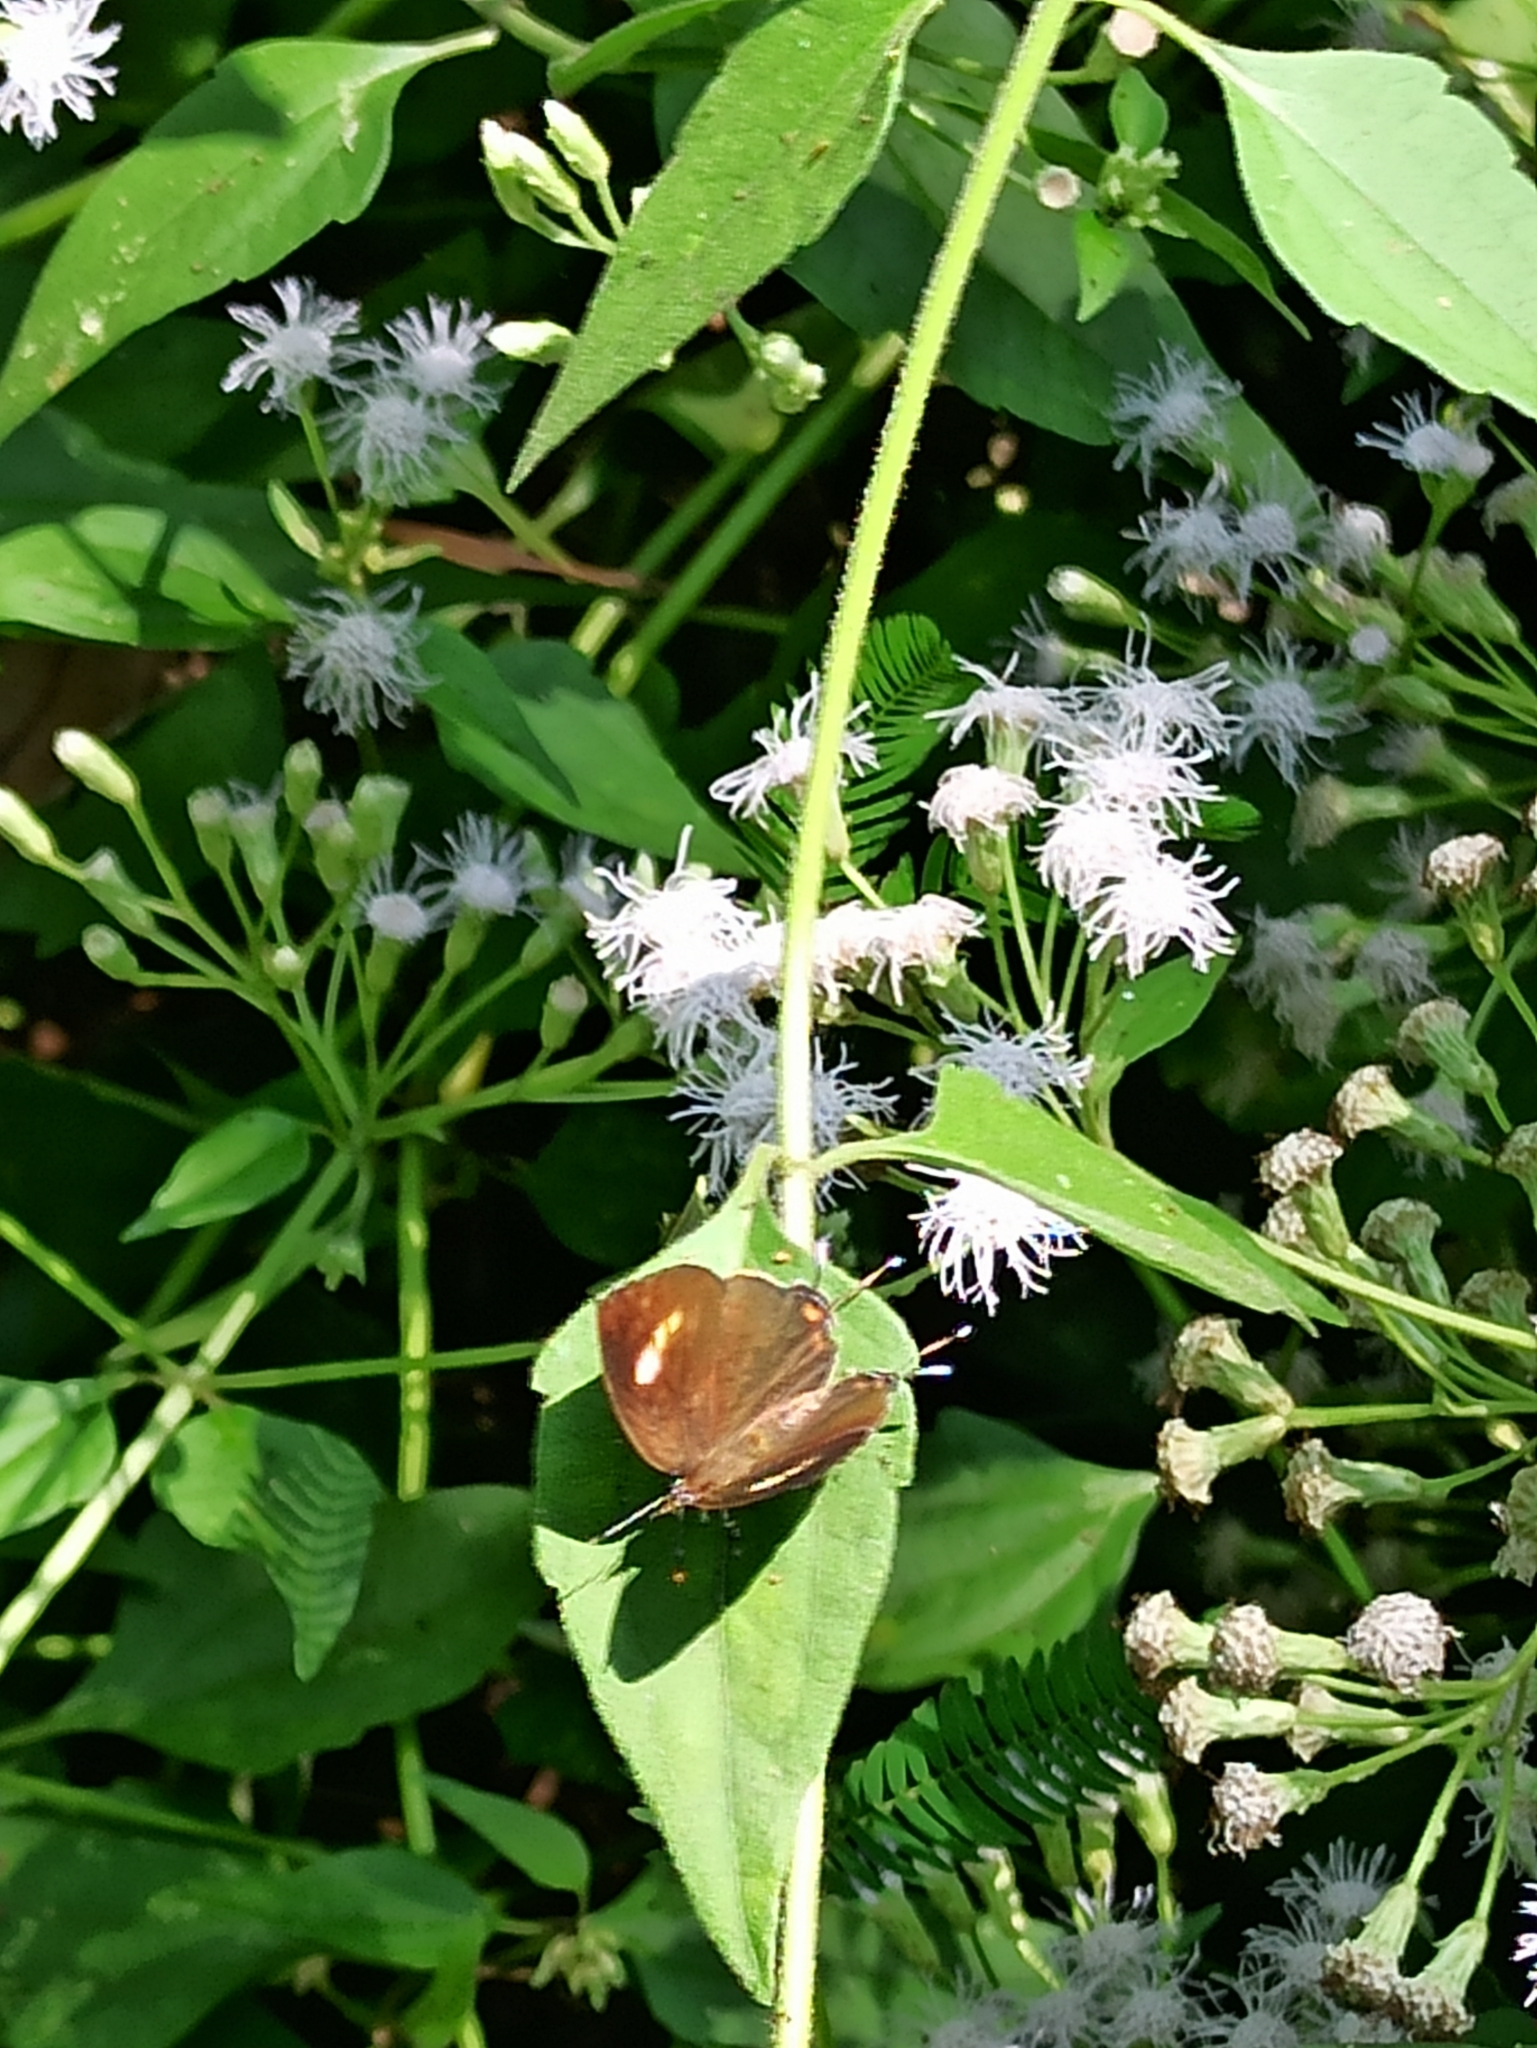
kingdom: Animalia
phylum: Arthropoda
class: Insecta
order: Lepidoptera
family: Lycaenidae
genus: Rathinda
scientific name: Rathinda amor
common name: Monkey puzzle
